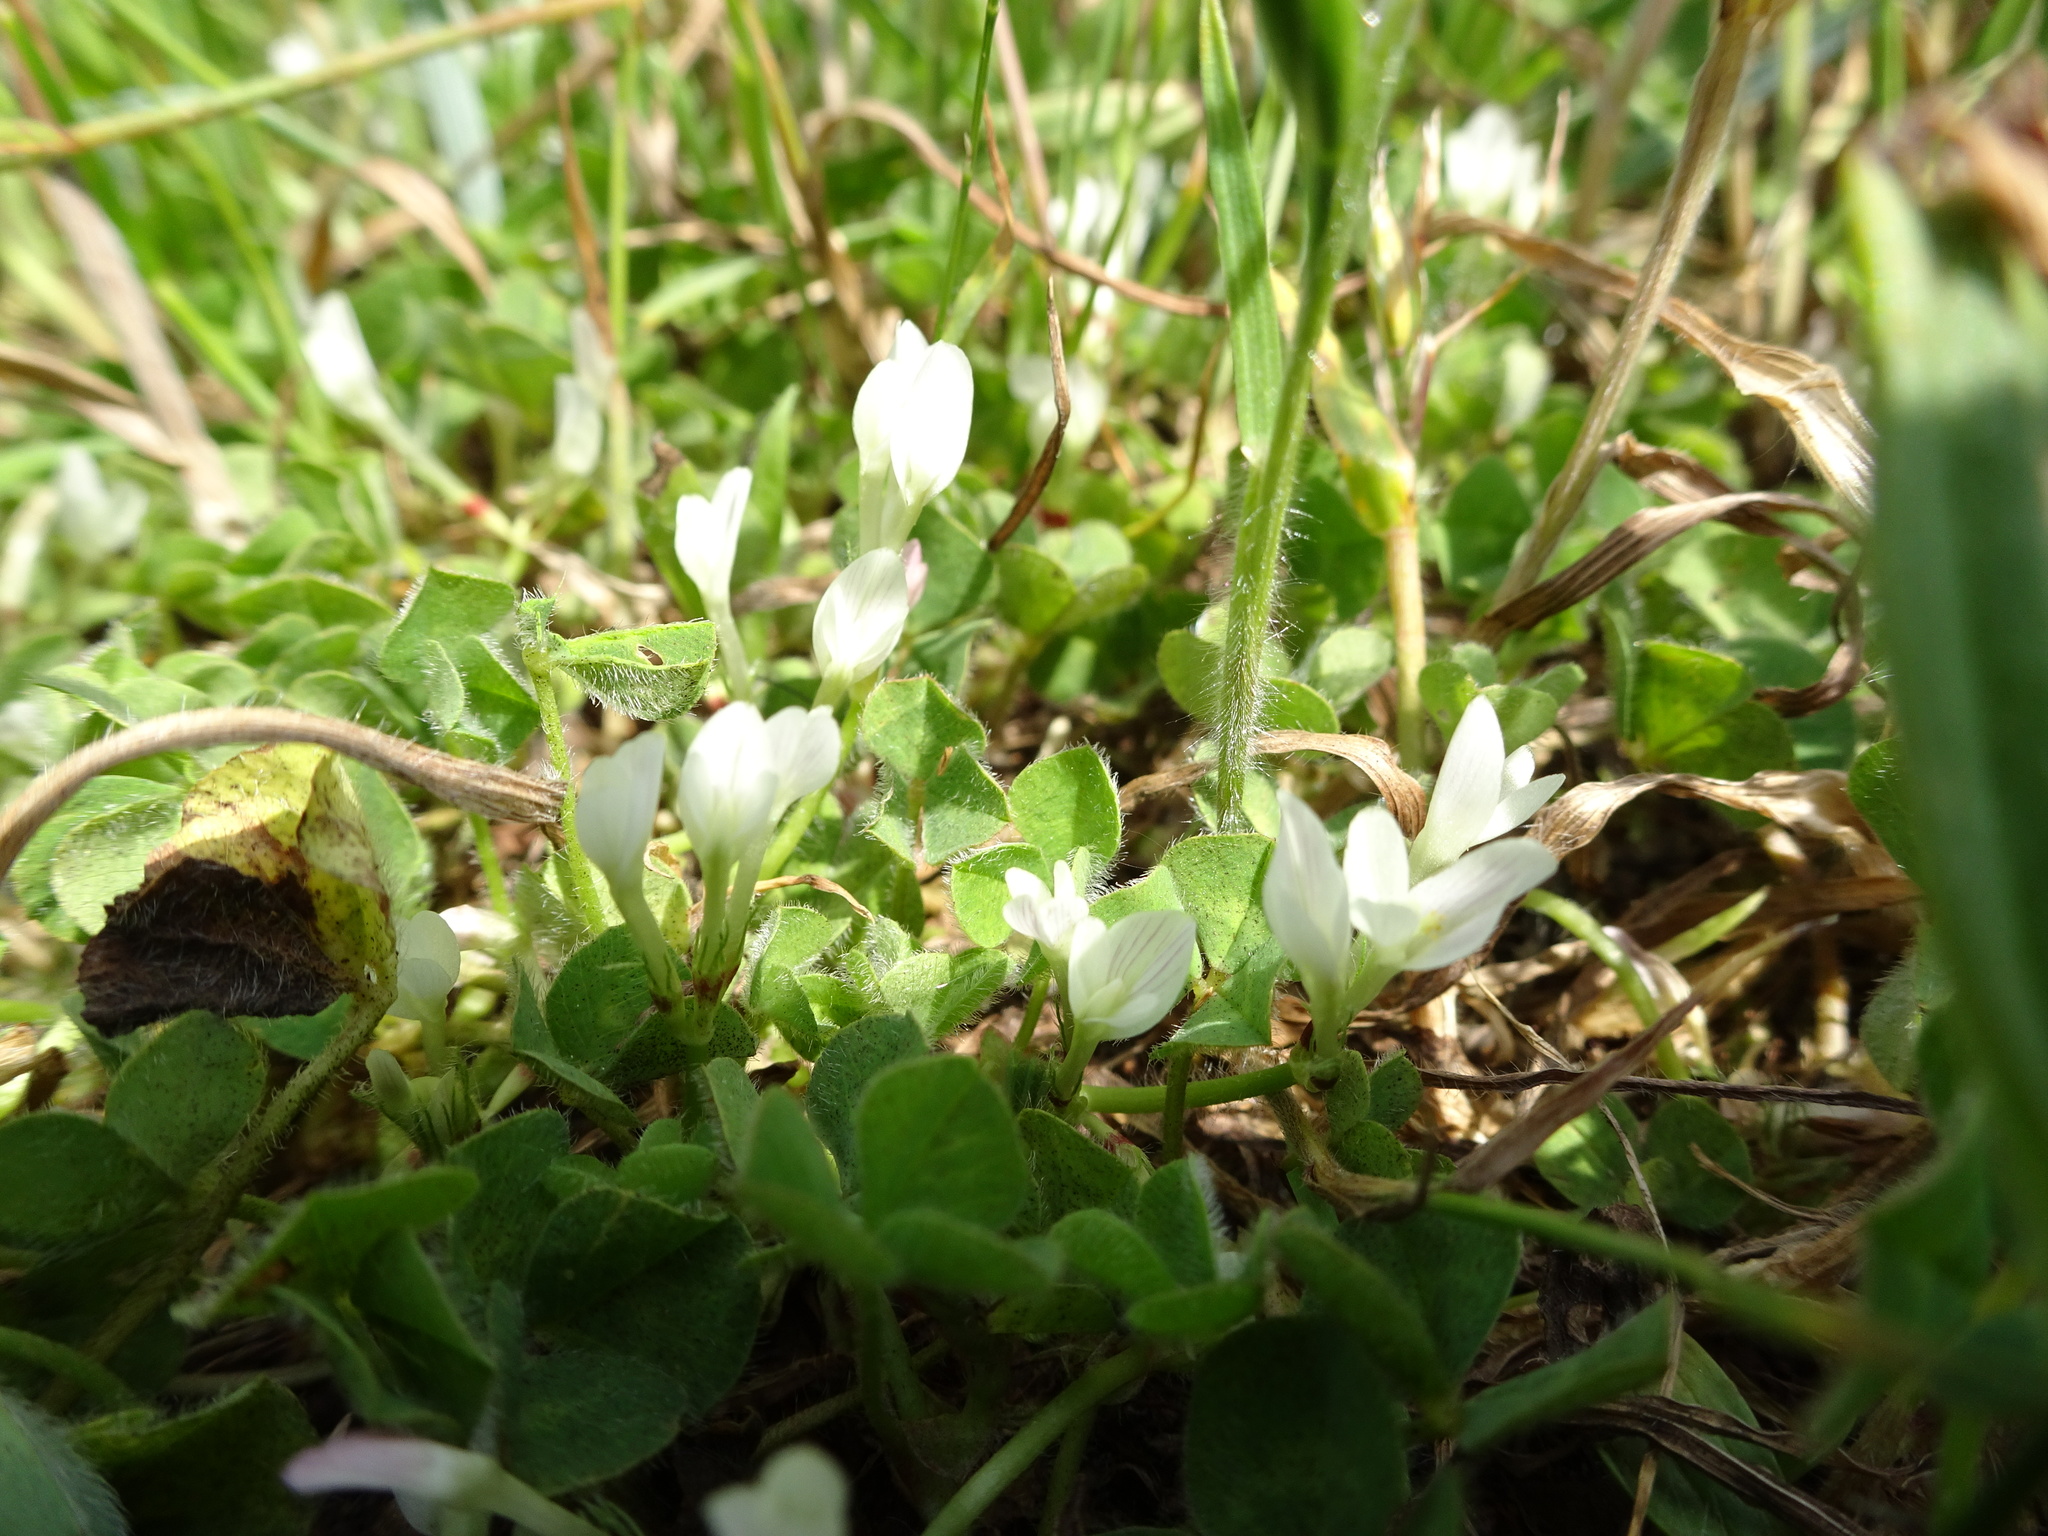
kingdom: Plantae
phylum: Tracheophyta
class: Magnoliopsida
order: Fabales
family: Fabaceae
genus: Trifolium
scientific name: Trifolium subterraneum
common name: Subterranean clover
